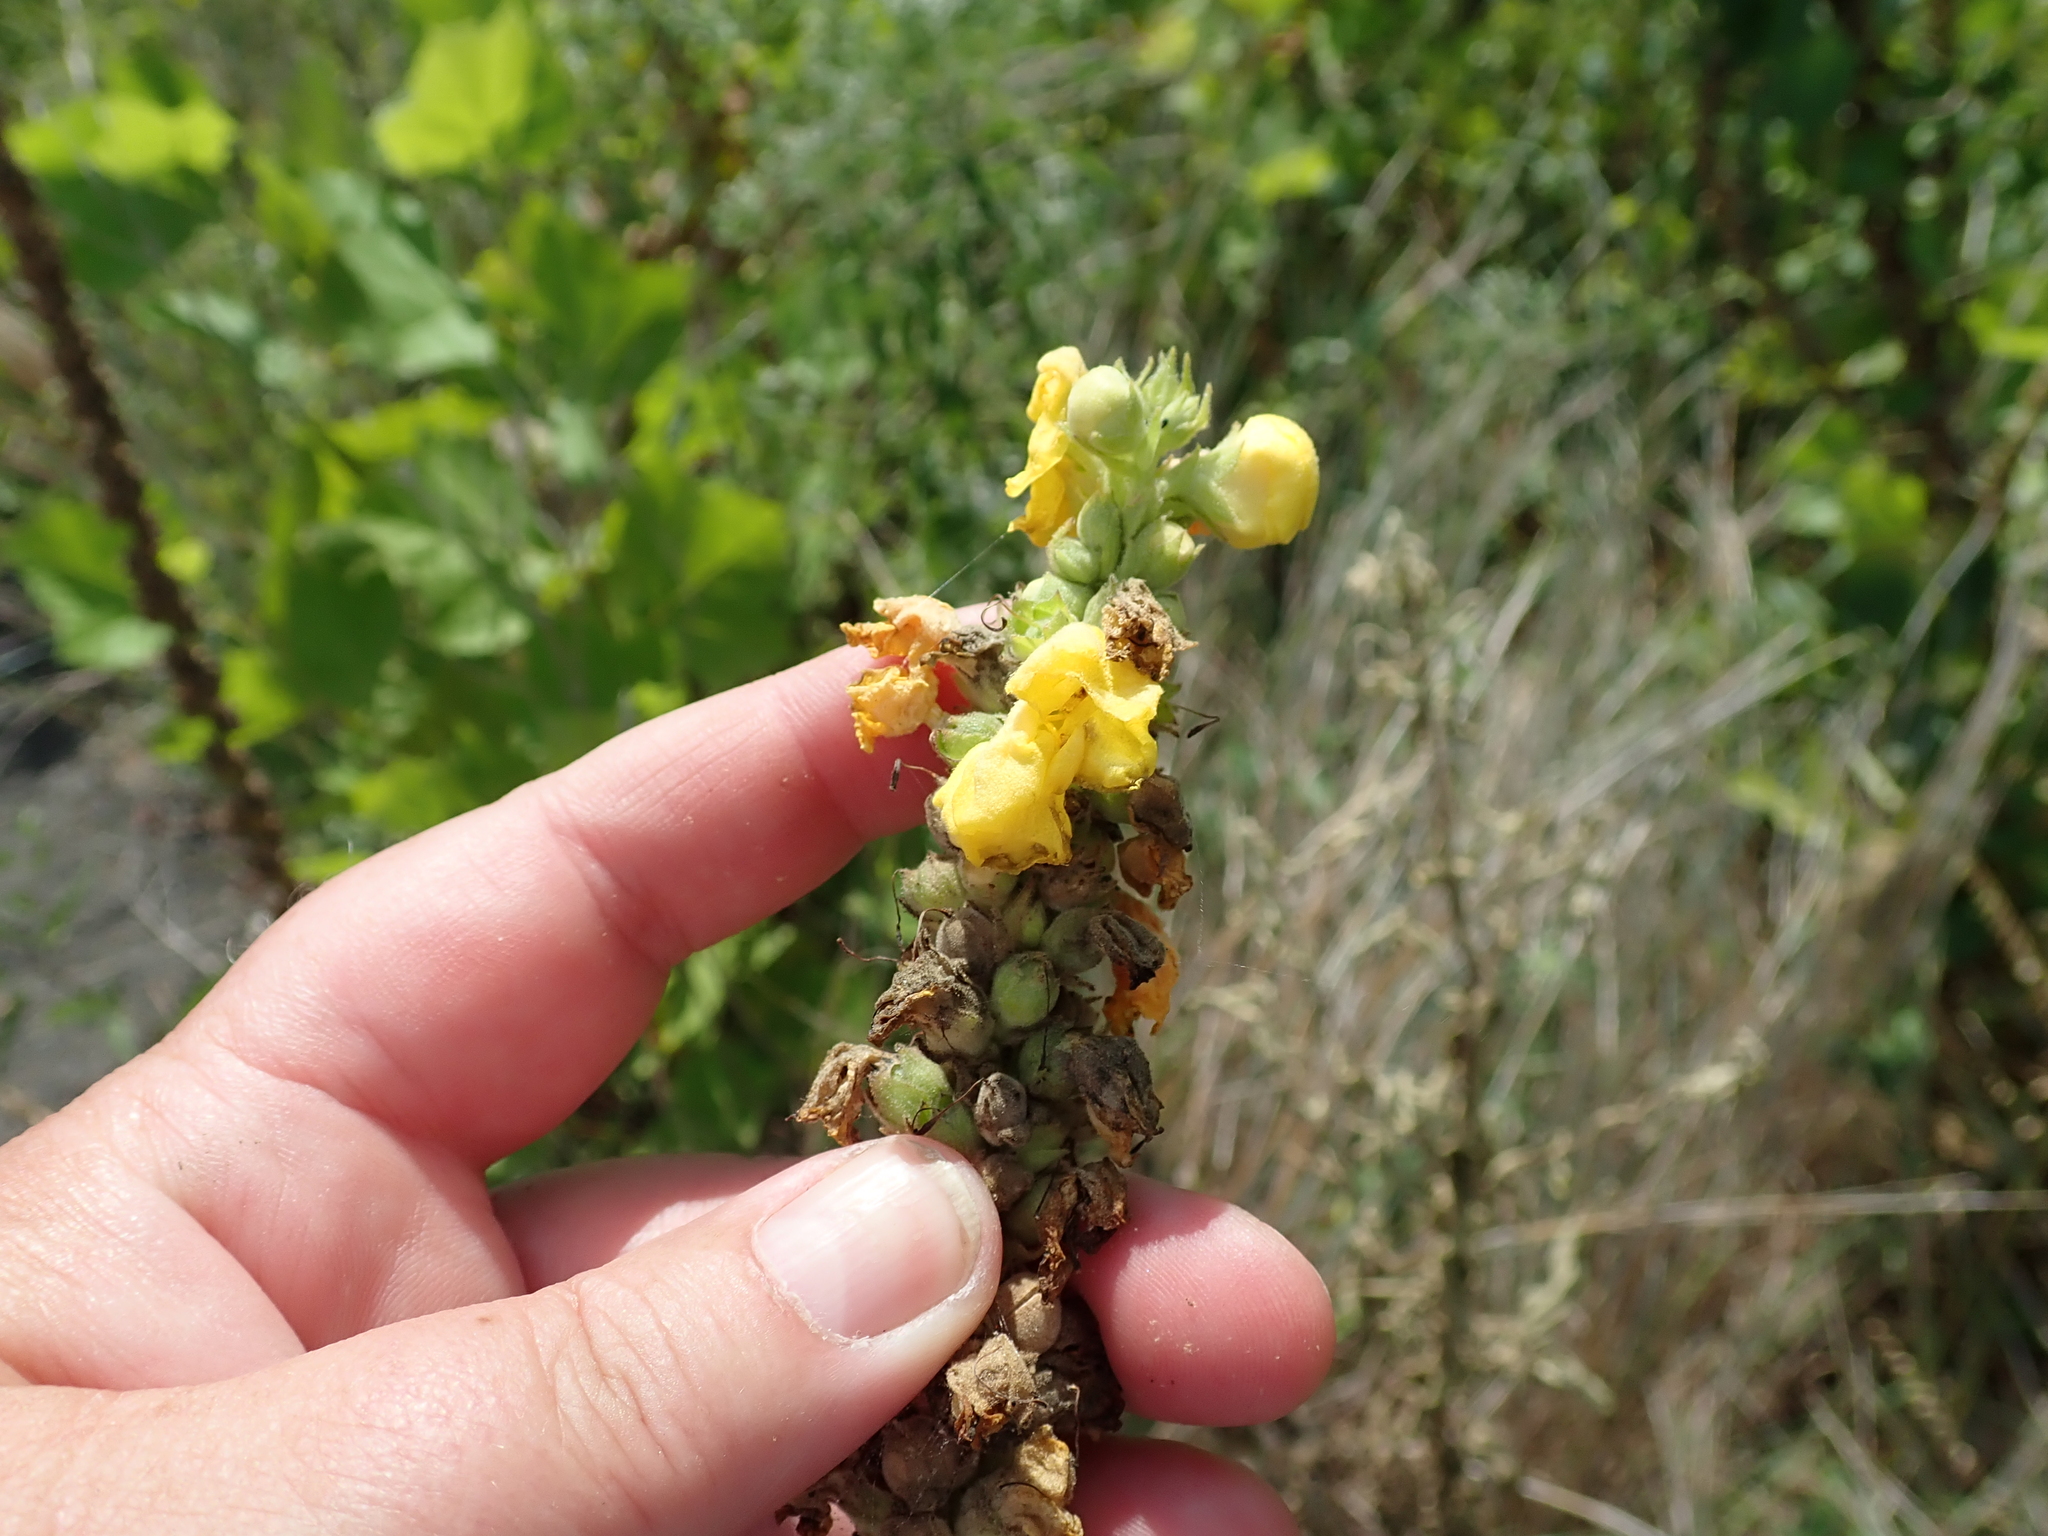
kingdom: Plantae
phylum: Tracheophyta
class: Magnoliopsida
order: Lamiales
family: Scrophulariaceae
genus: Verbascum
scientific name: Verbascum phlomoides
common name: Orange mullein
